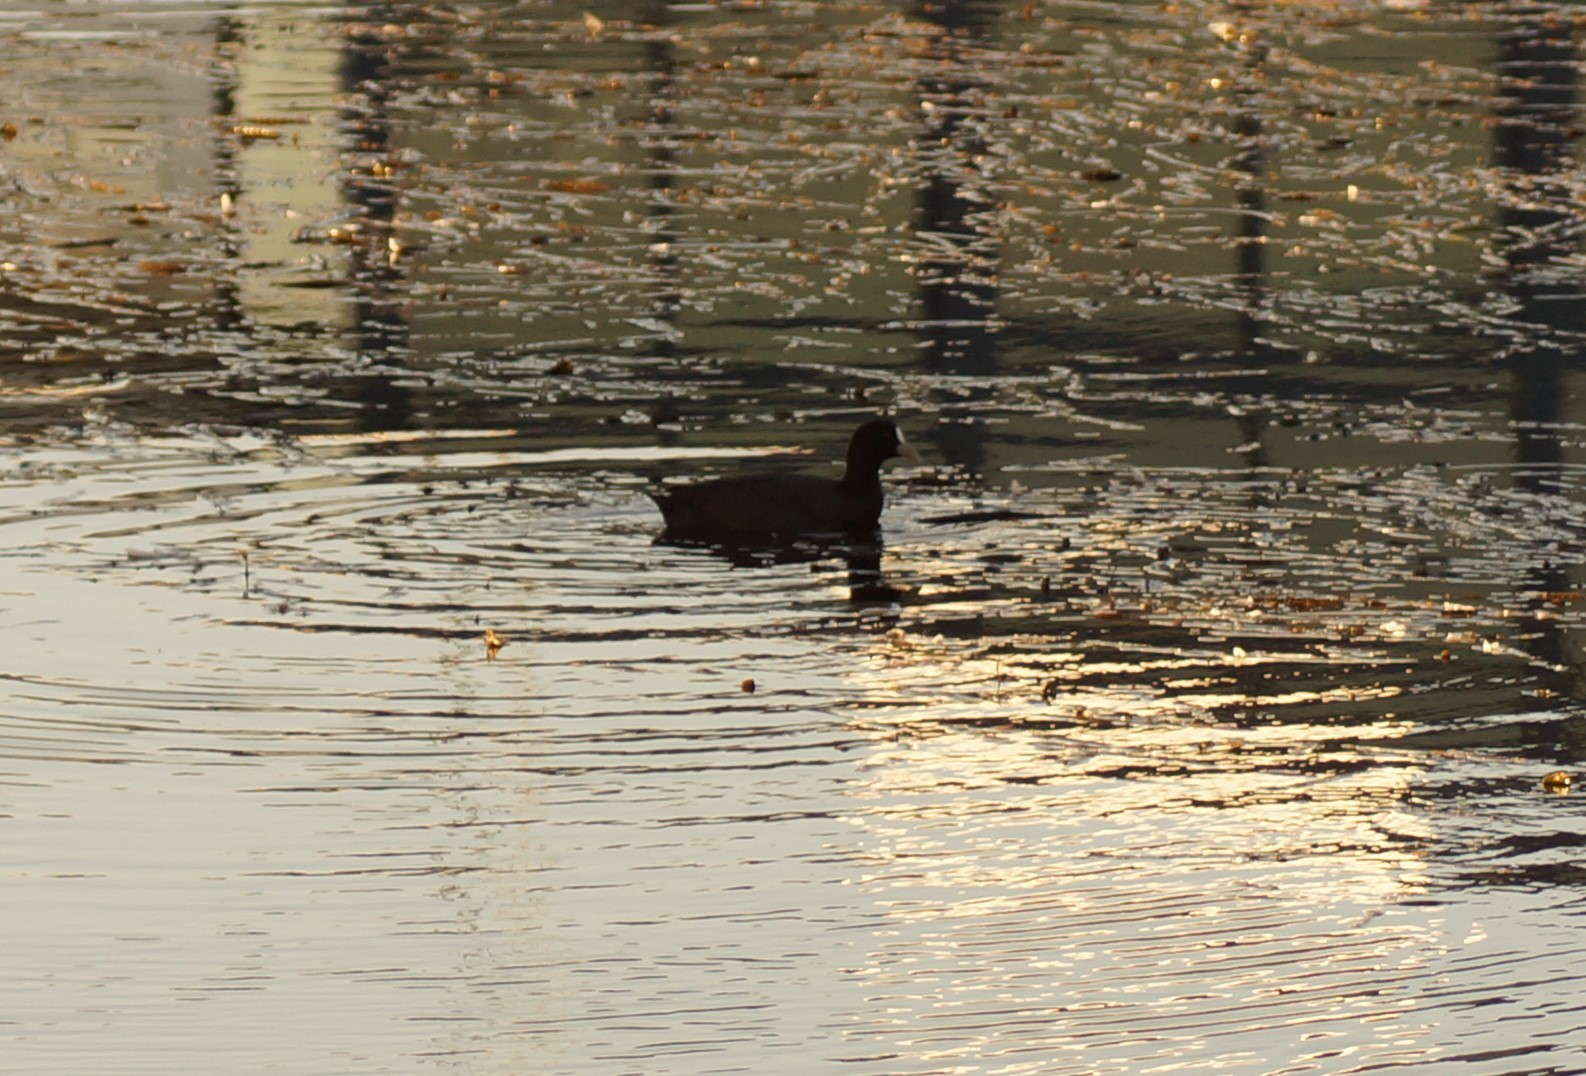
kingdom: Animalia
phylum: Chordata
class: Aves
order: Gruiformes
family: Rallidae
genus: Fulica
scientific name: Fulica atra
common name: Eurasian coot
